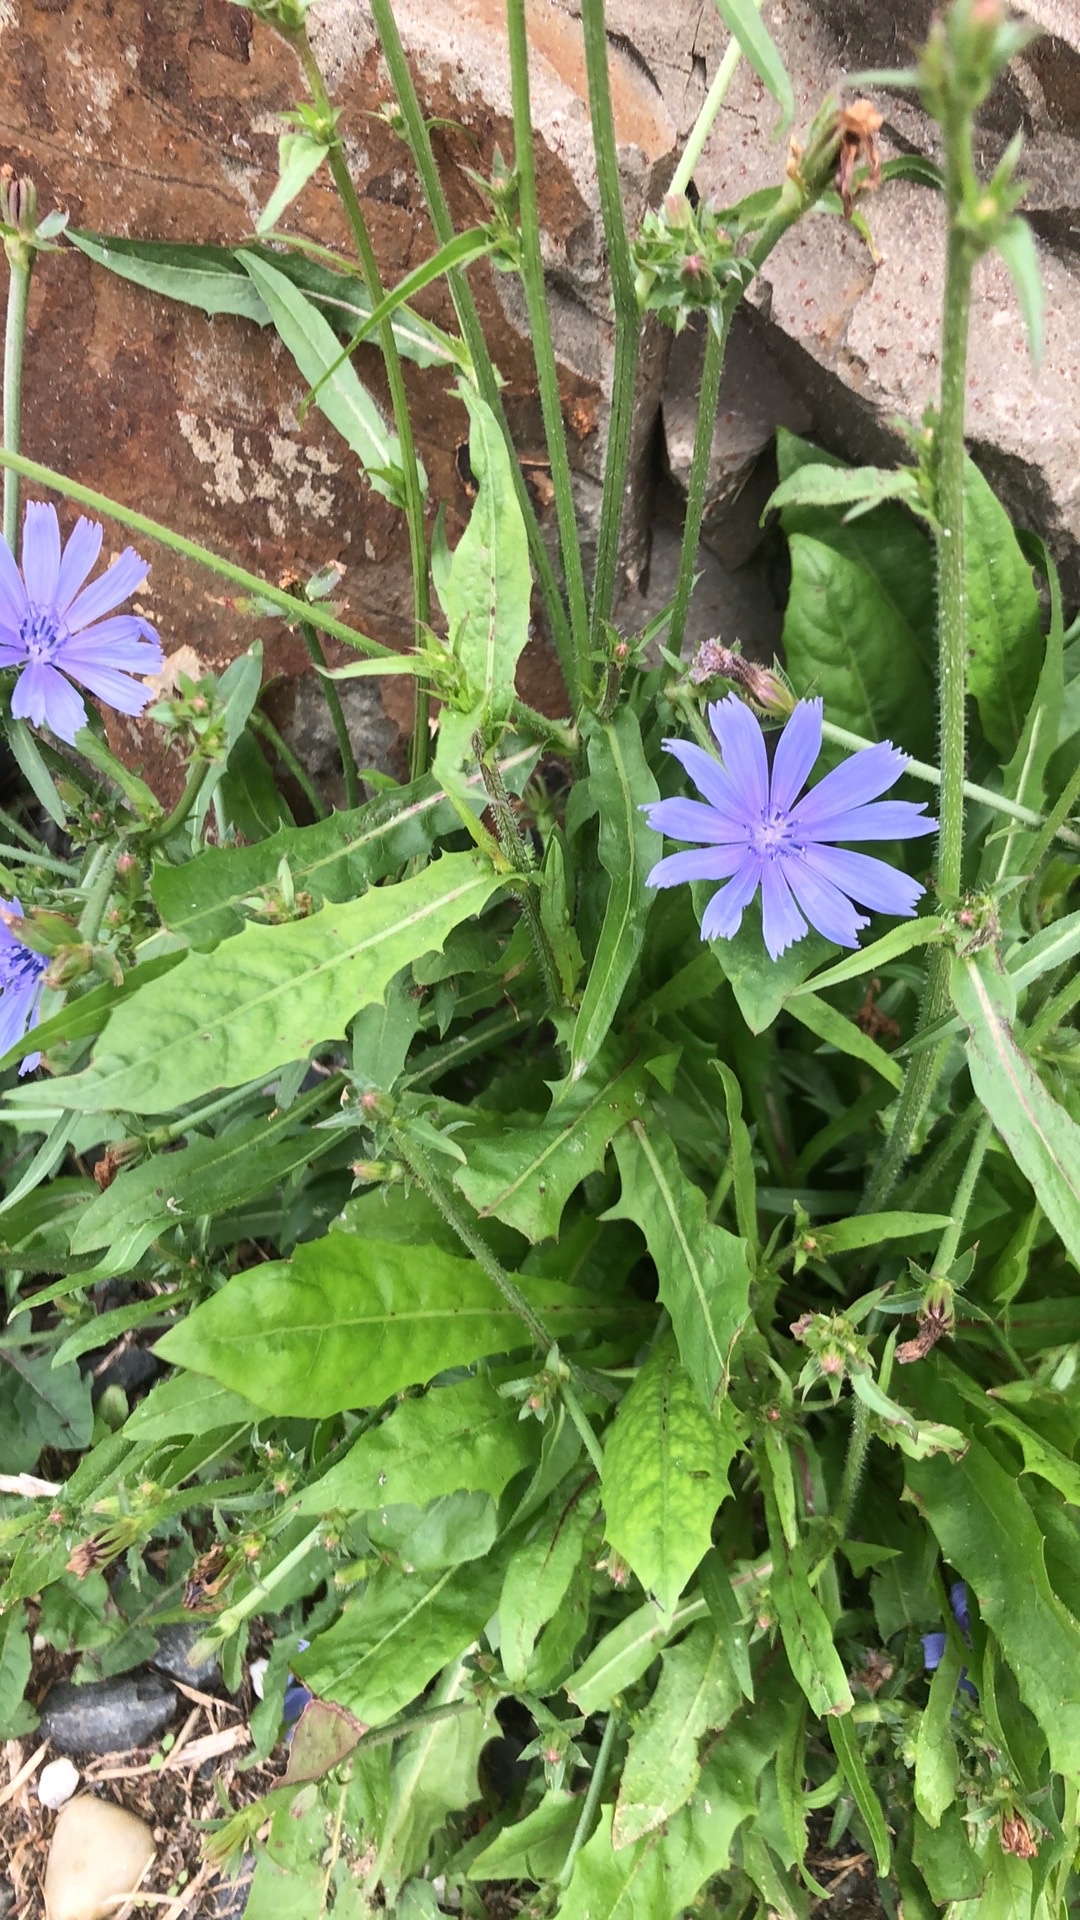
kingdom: Plantae
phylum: Tracheophyta
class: Magnoliopsida
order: Asterales
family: Asteraceae
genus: Cichorium
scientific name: Cichorium intybus
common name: Chicory
